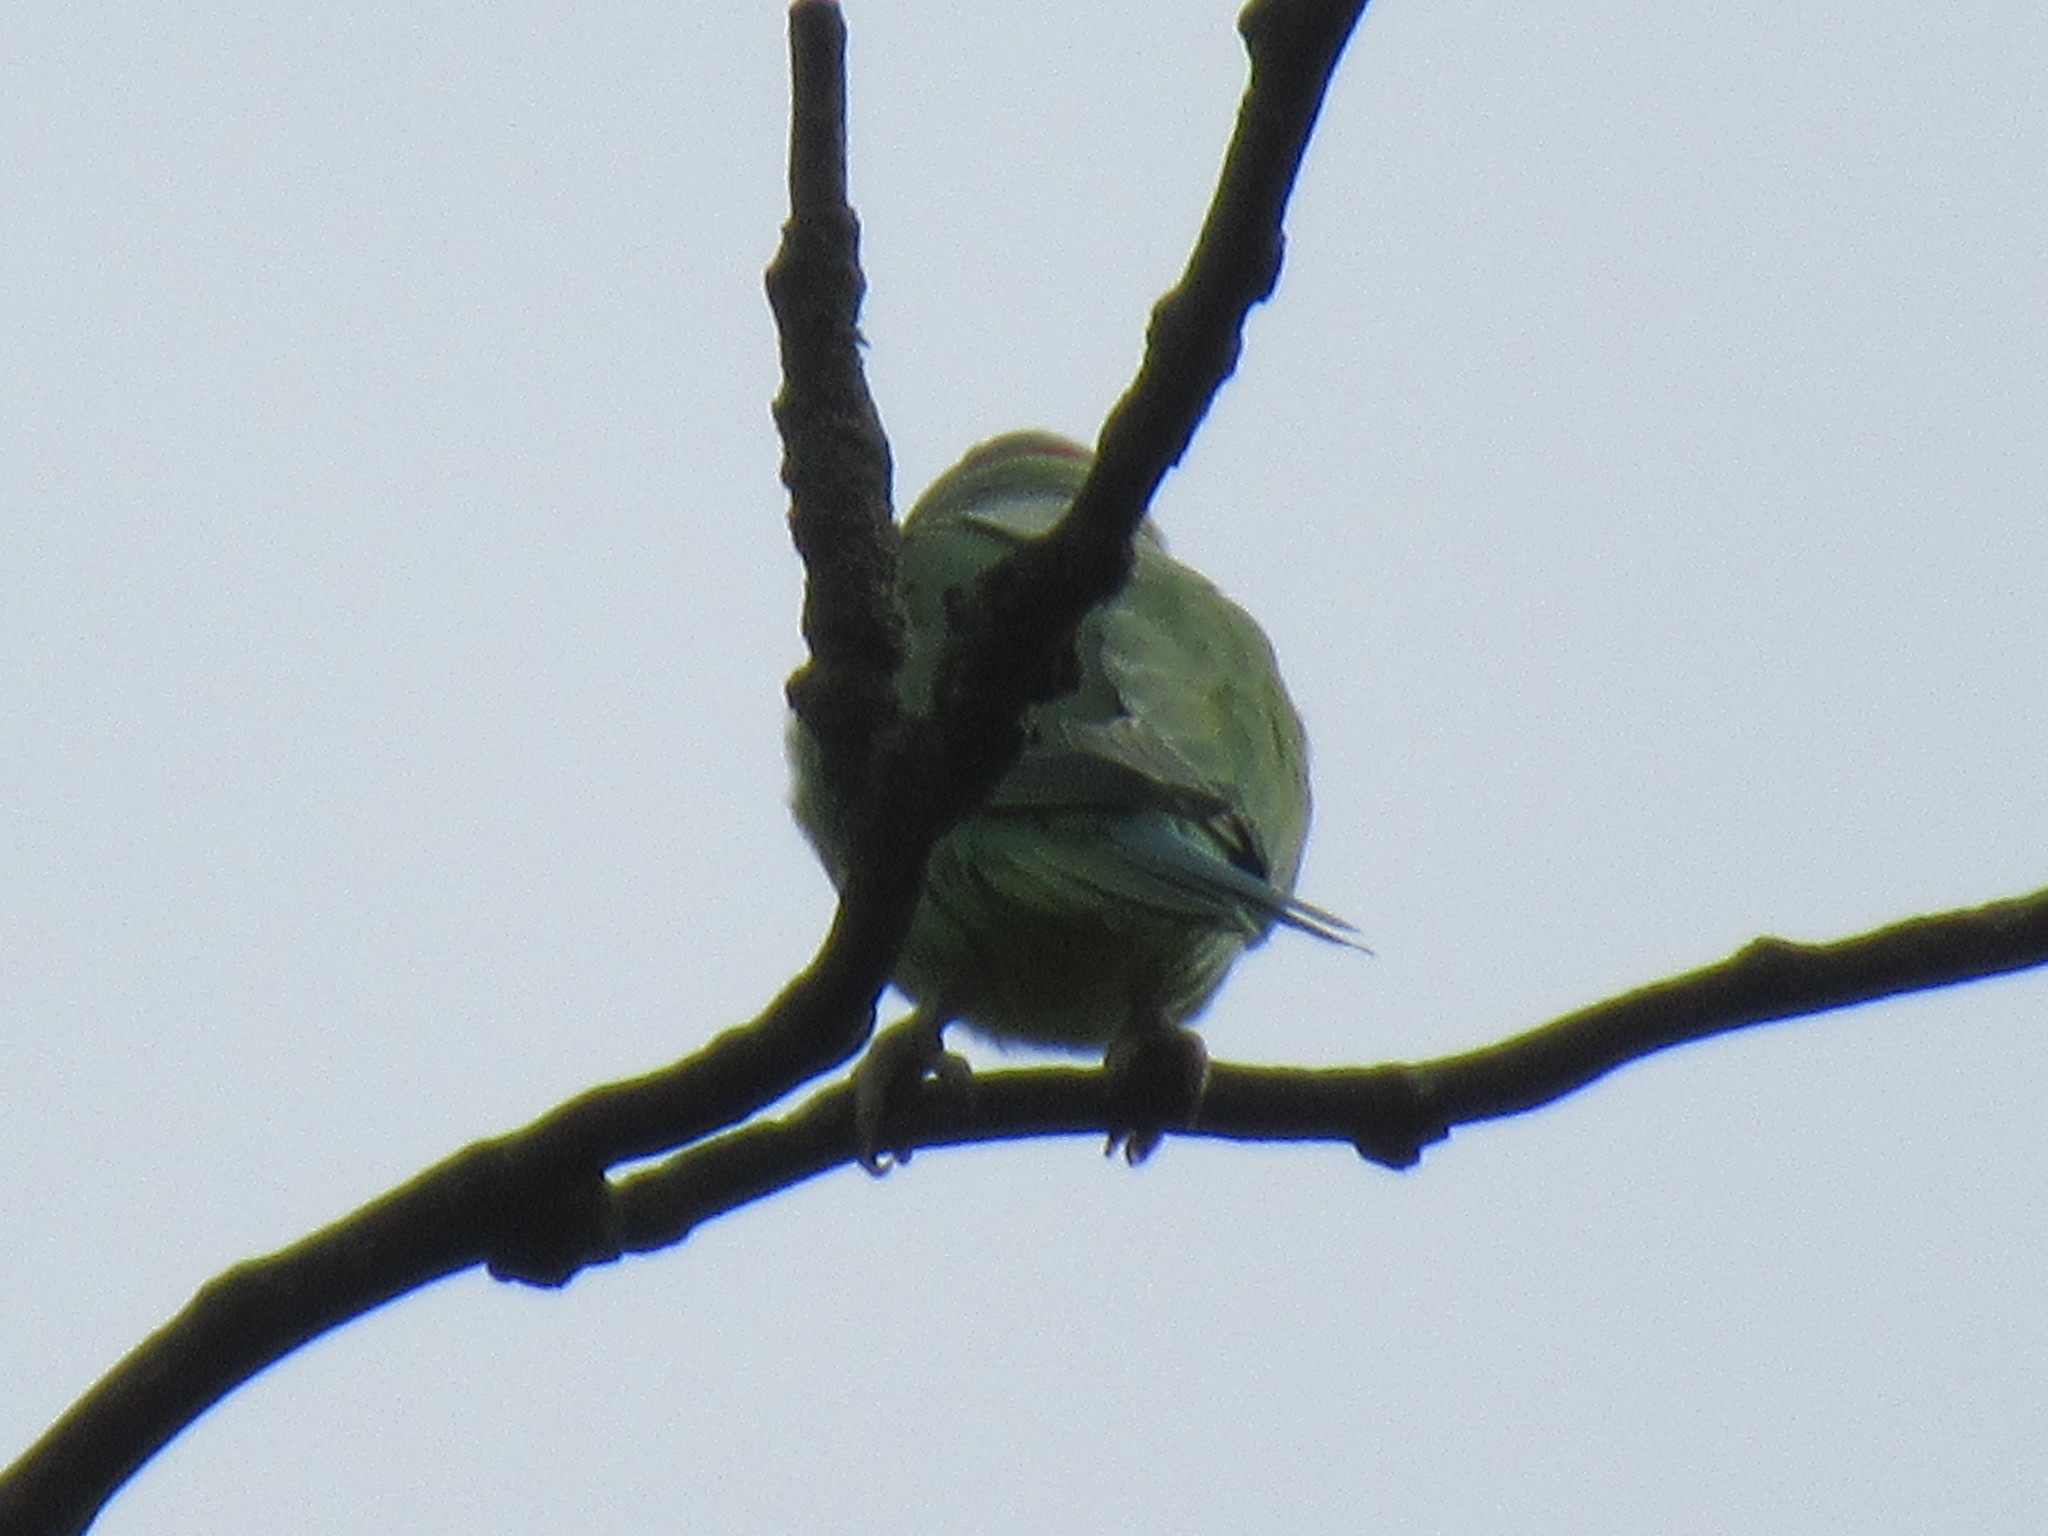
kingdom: Animalia
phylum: Chordata
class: Aves
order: Psittaciformes
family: Psittacidae
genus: Psittacula
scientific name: Psittacula krameri
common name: Rose-ringed parakeet
